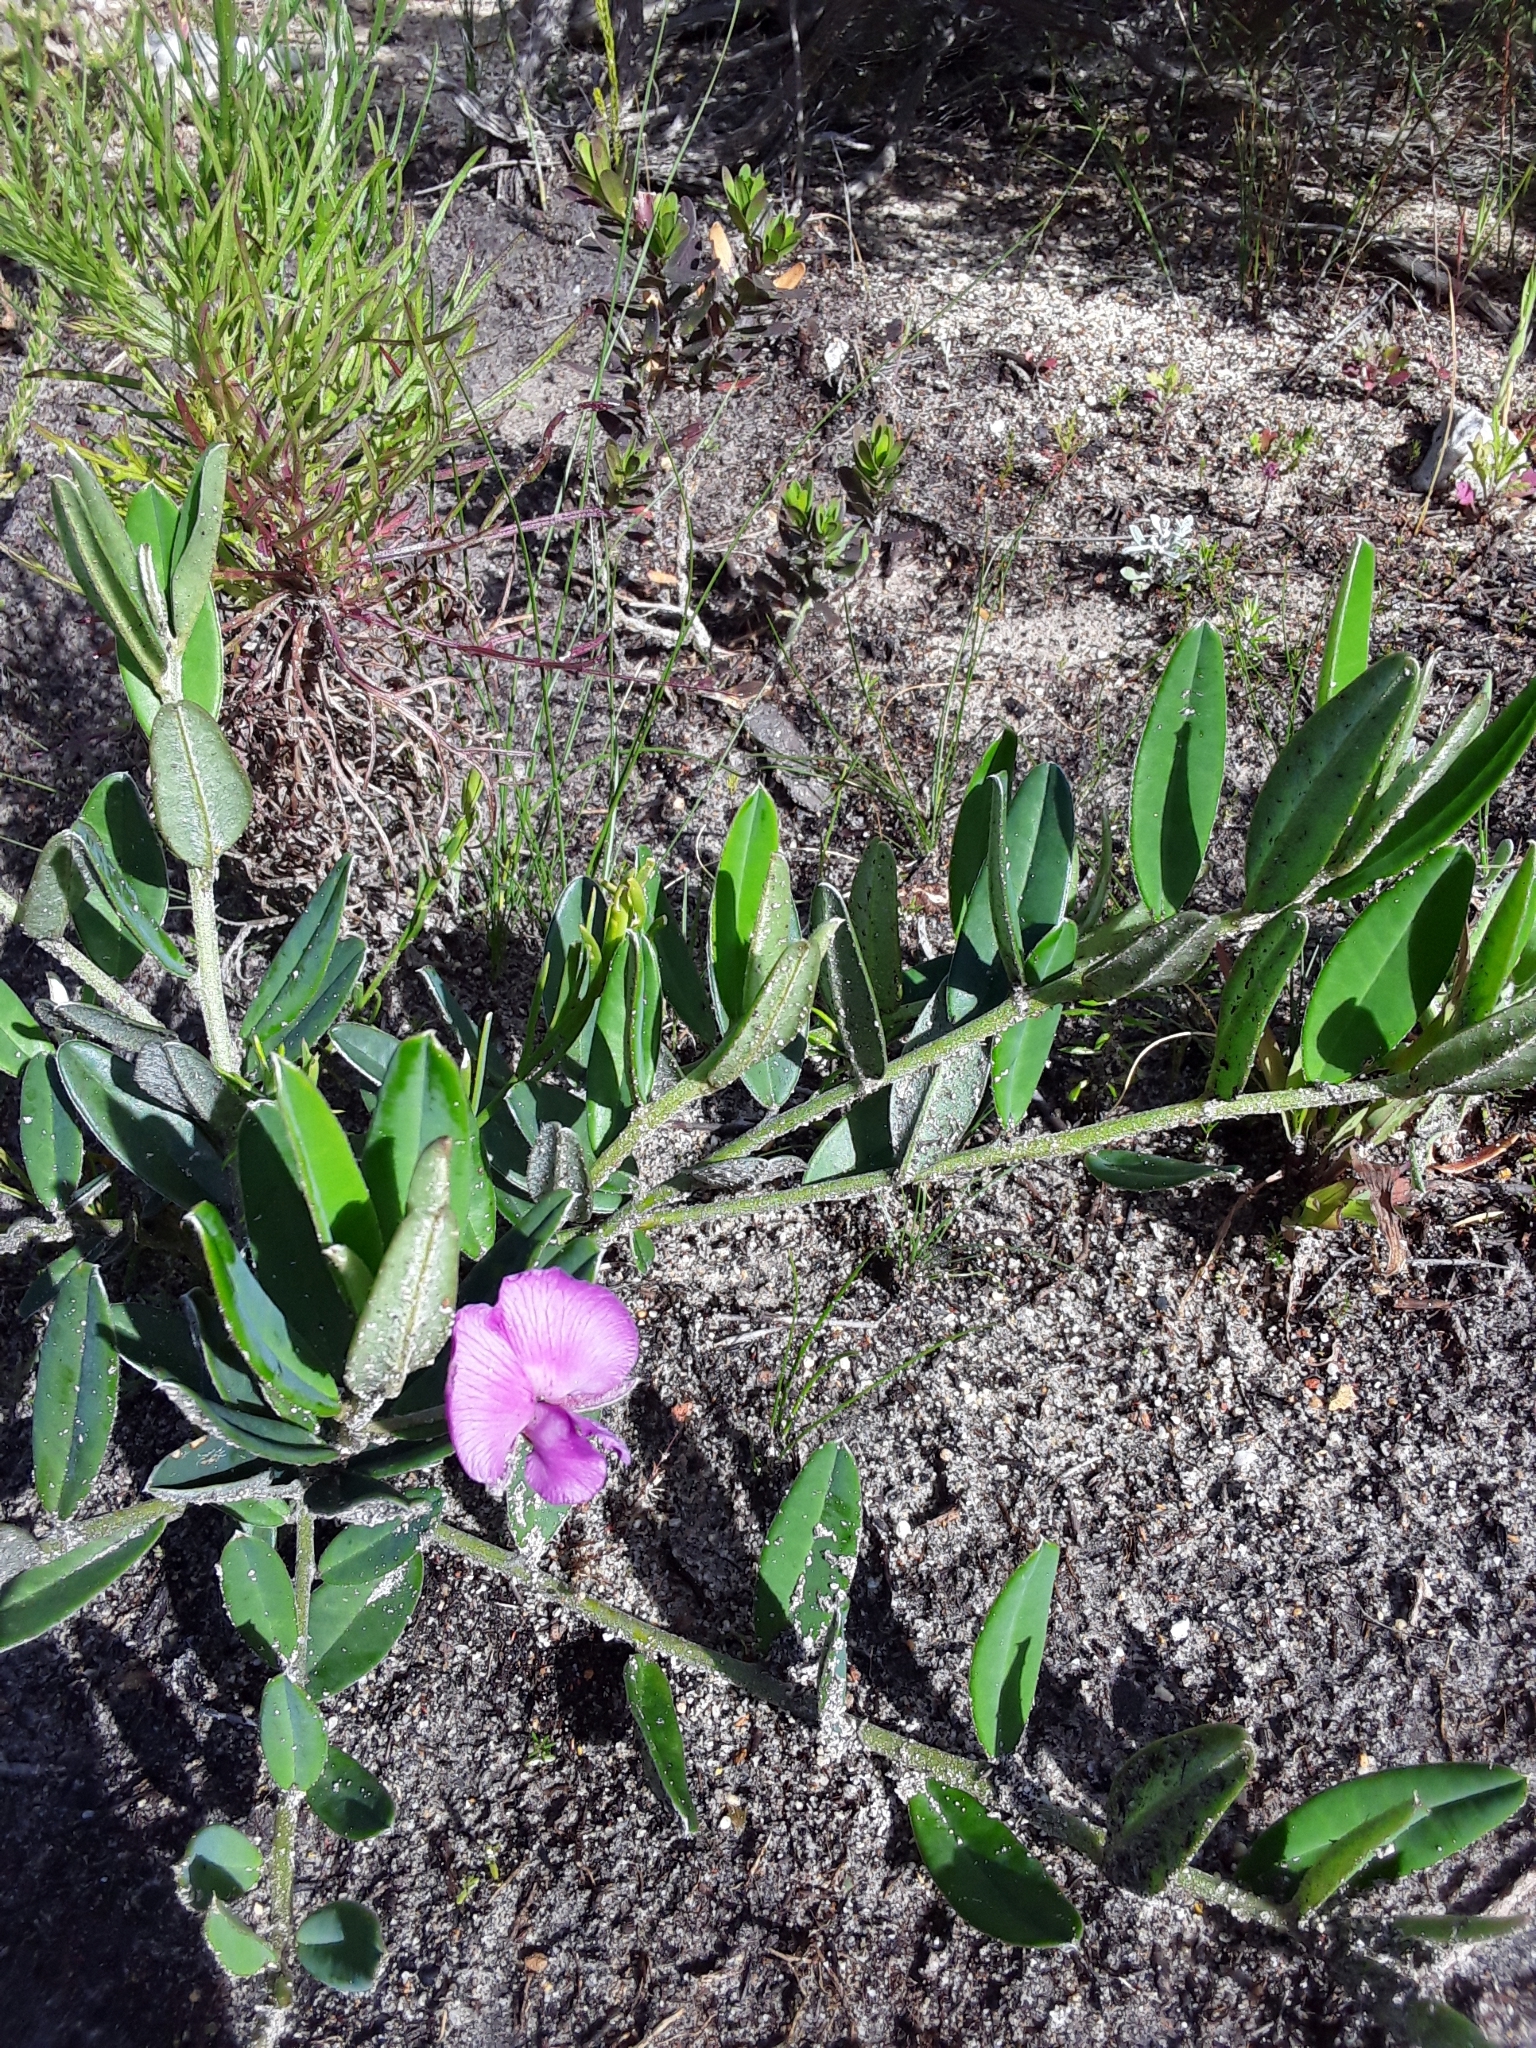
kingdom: Plantae
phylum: Tracheophyta
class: Magnoliopsida
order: Fabales
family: Fabaceae
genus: Podalyria
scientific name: Podalyria oleifolia
